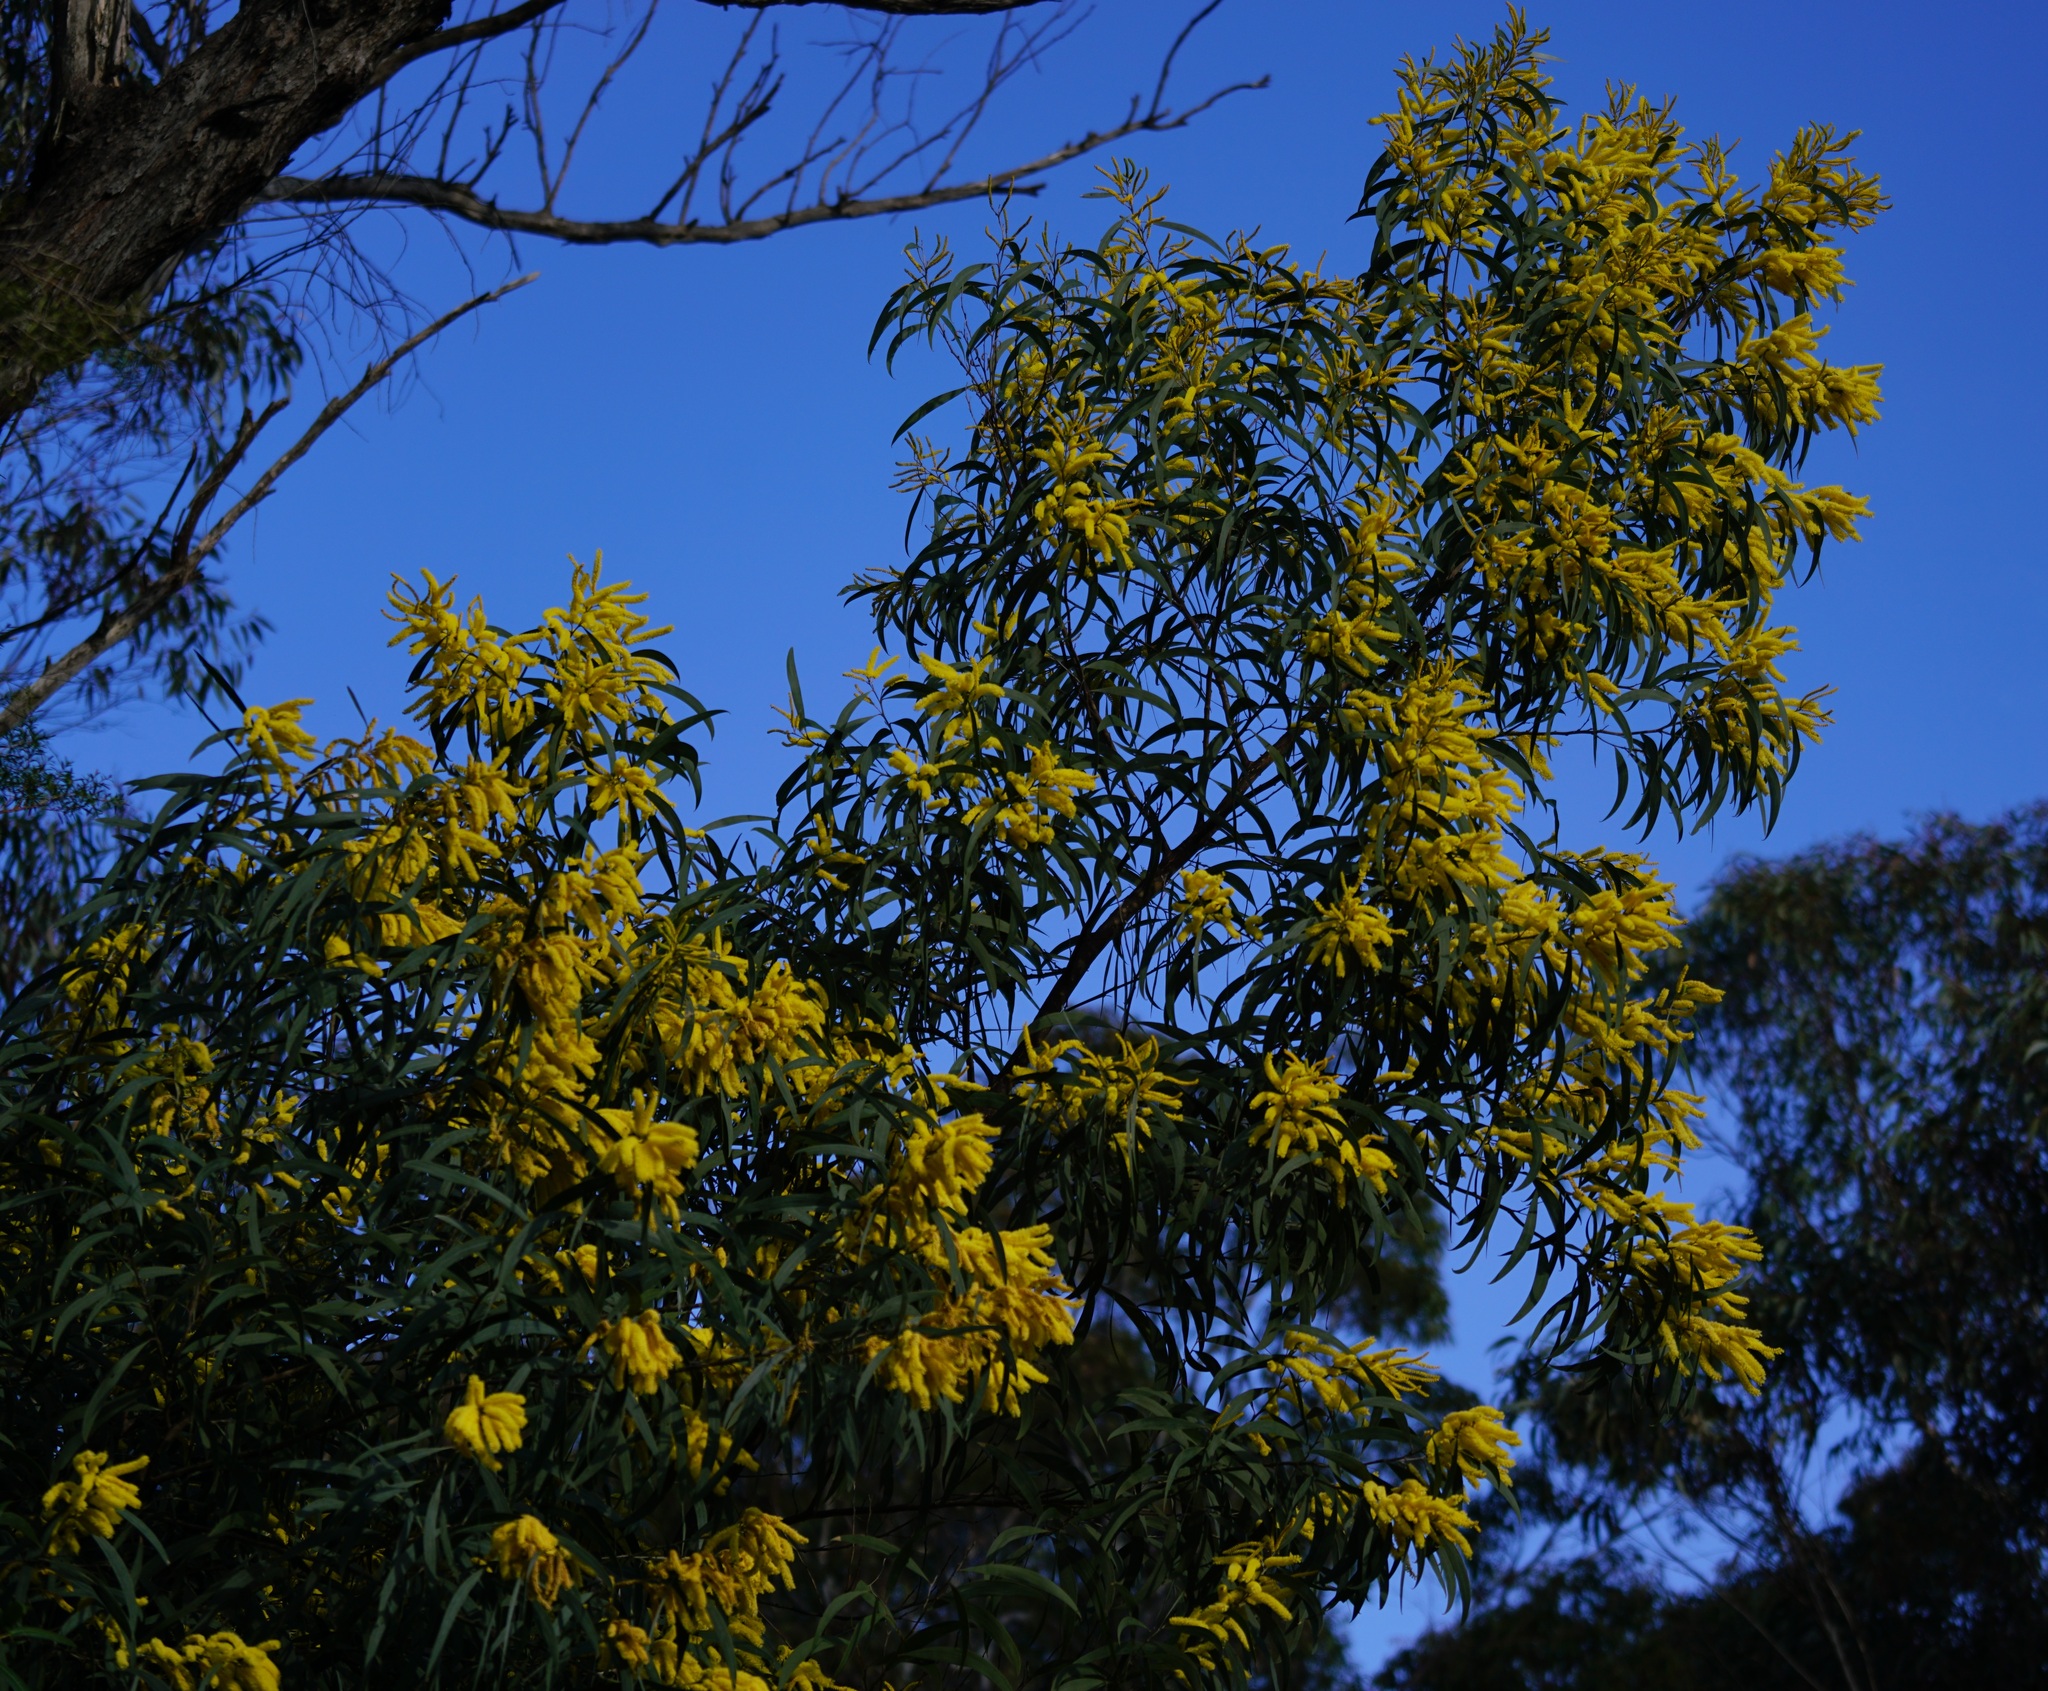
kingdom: Plantae
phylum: Tracheophyta
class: Magnoliopsida
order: Fabales
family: Fabaceae
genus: Acacia
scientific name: Acacia binervia
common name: Coast myall
